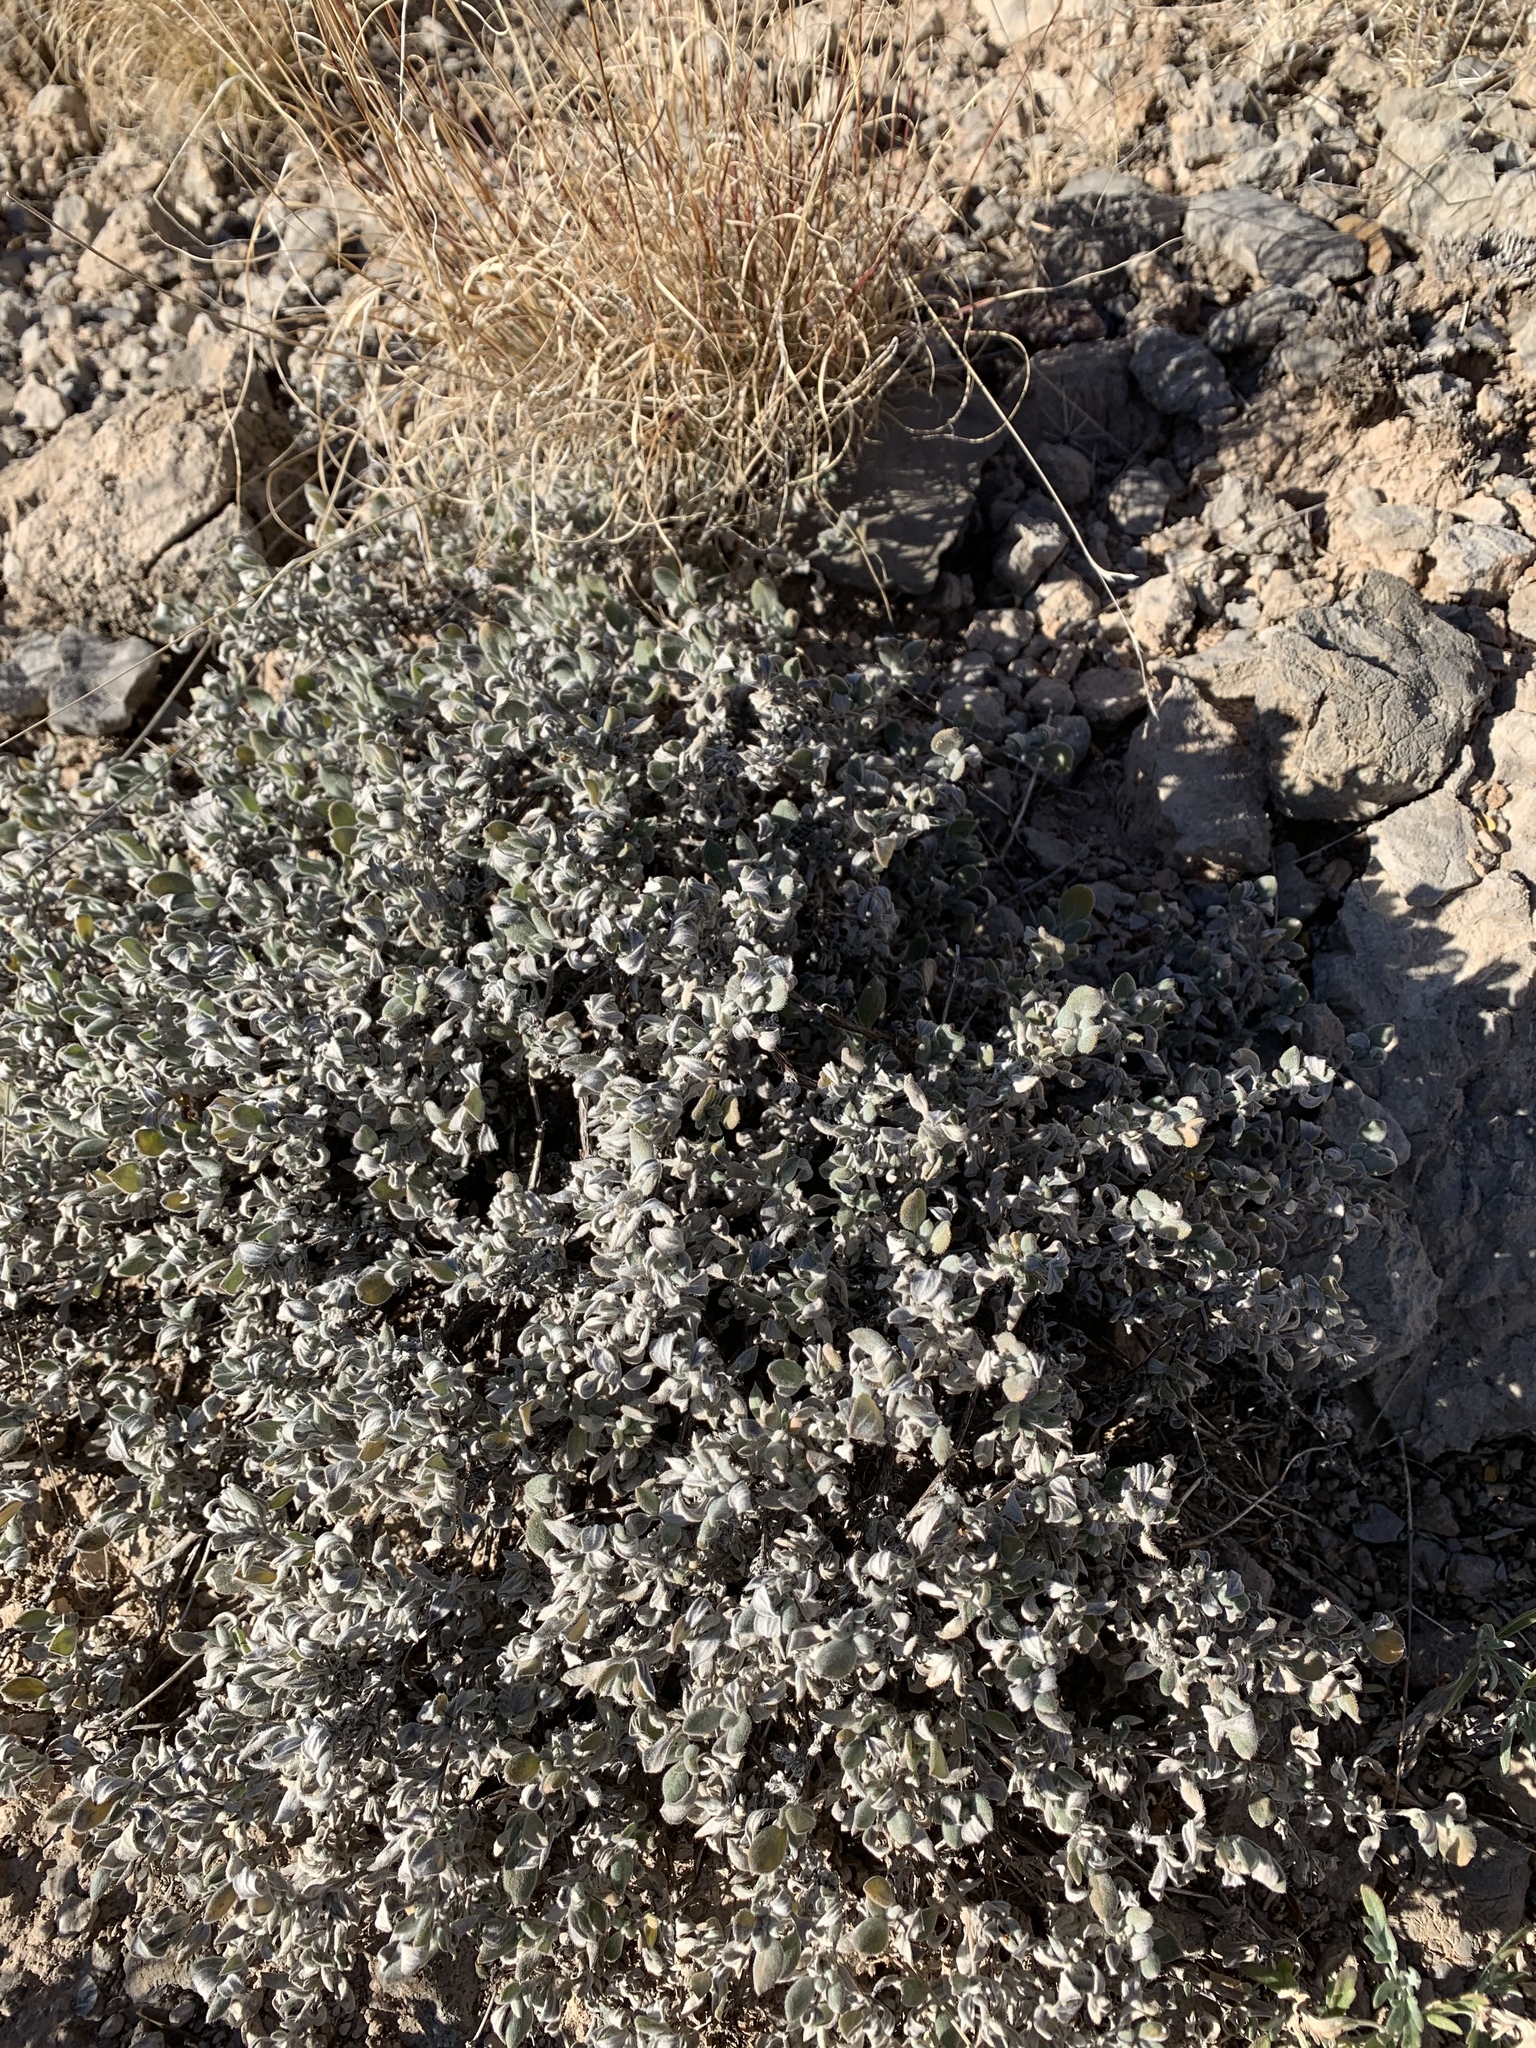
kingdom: Plantae
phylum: Tracheophyta
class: Magnoliopsida
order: Boraginales
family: Ehretiaceae
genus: Tiquilia
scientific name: Tiquilia canescens
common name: Hairy tiquilia
